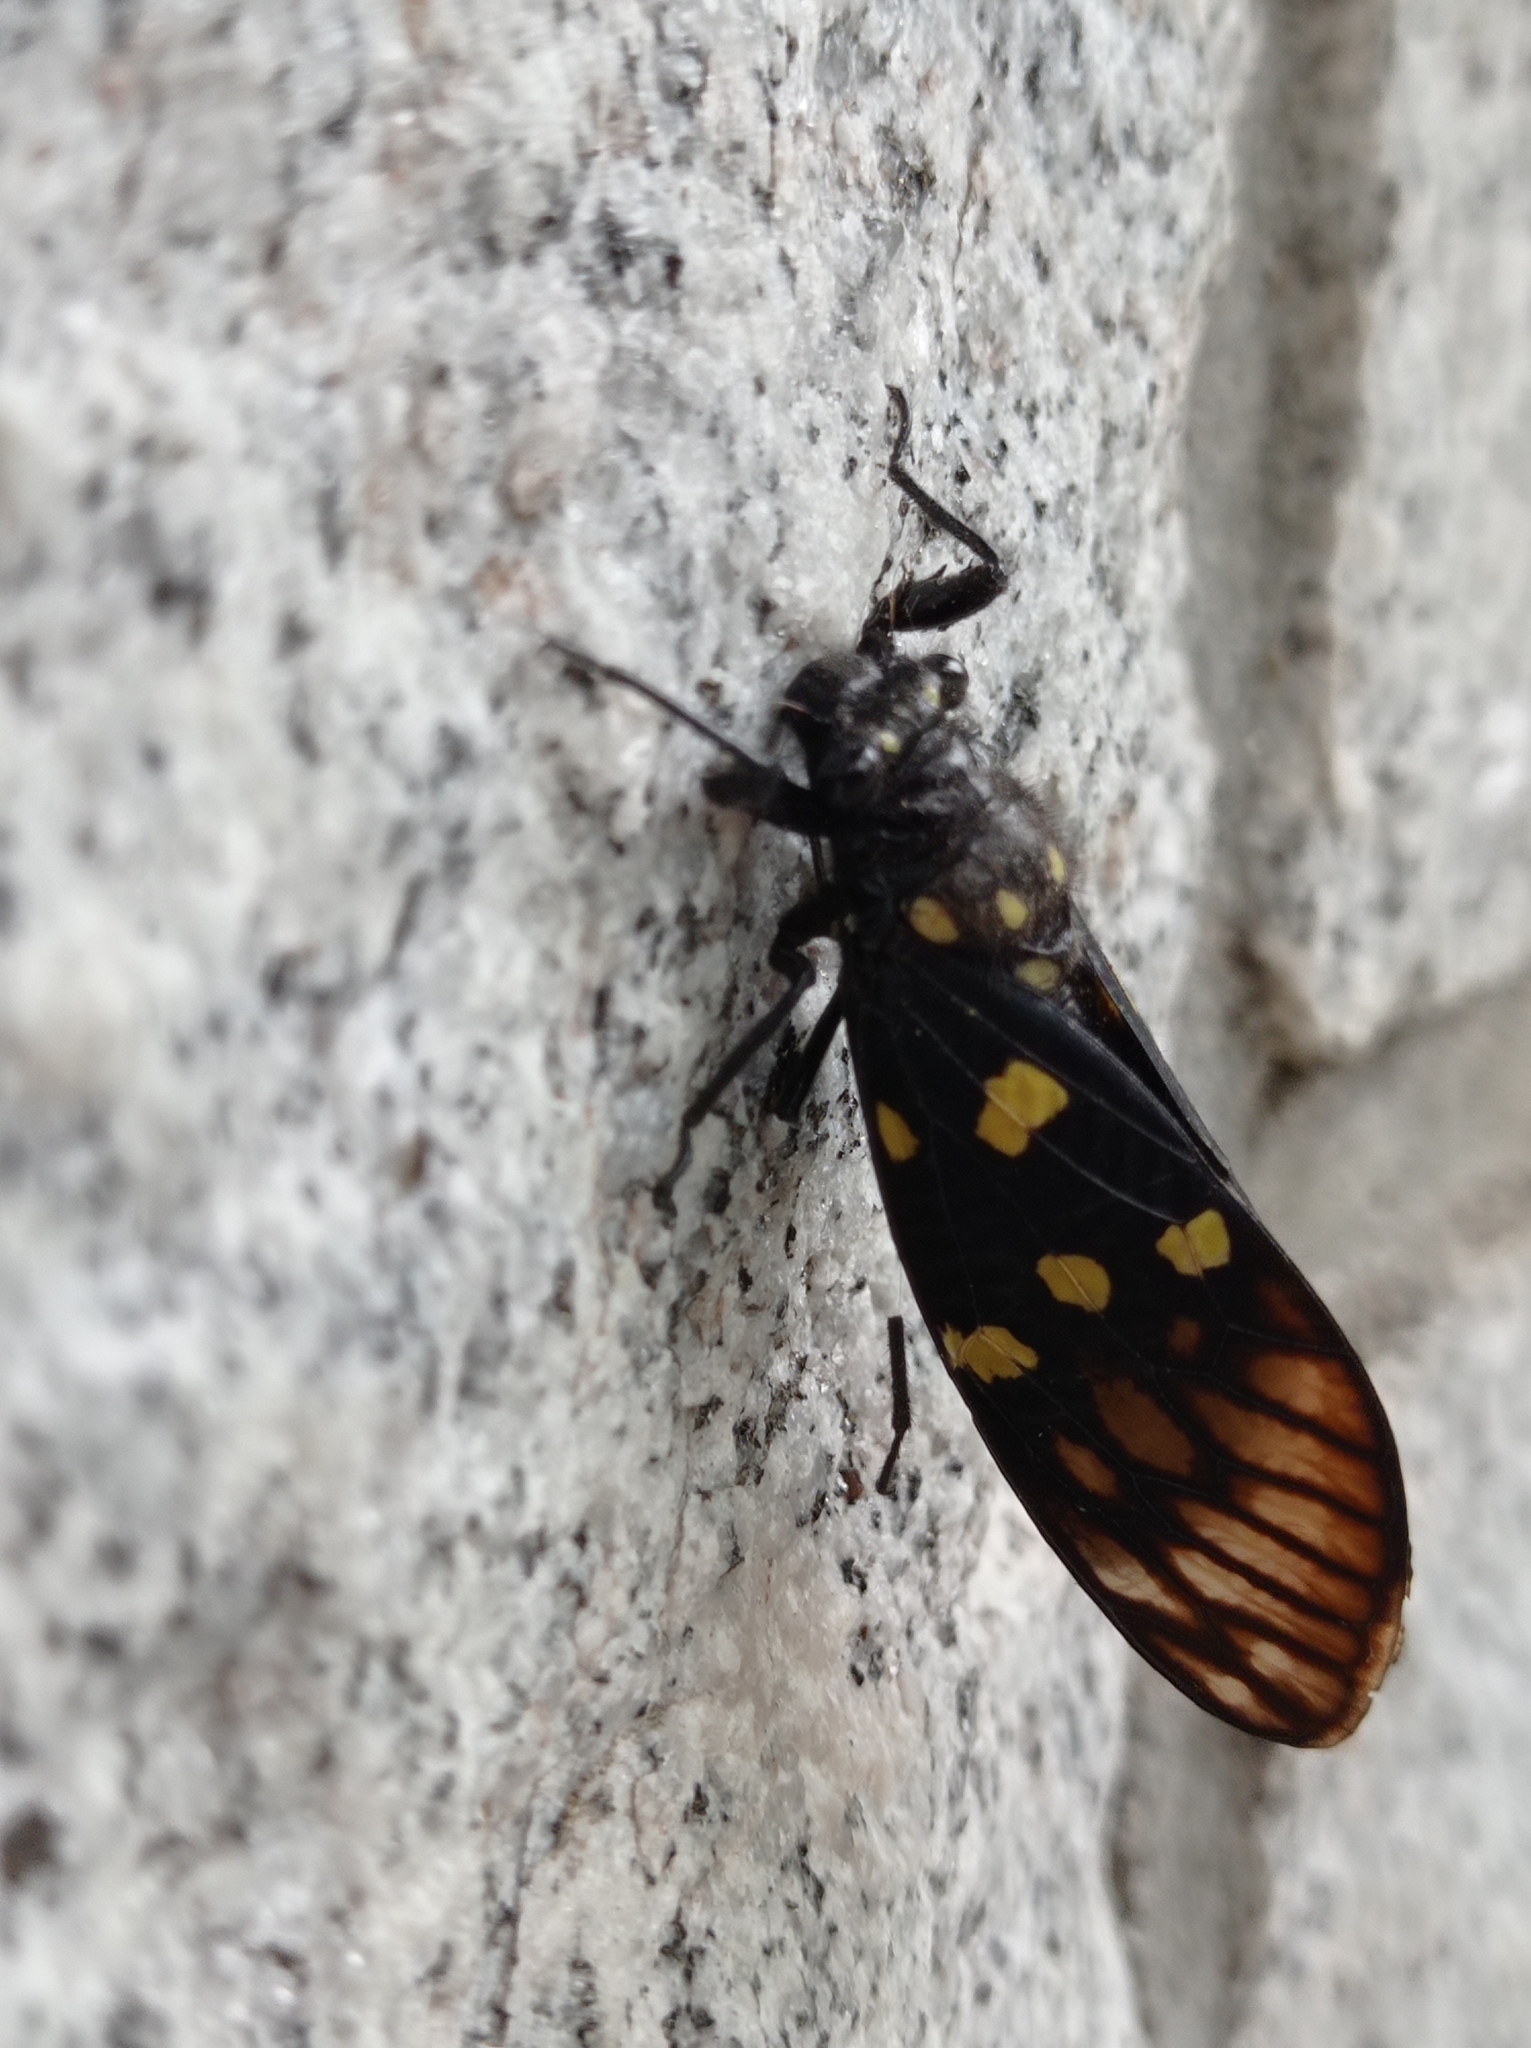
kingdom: Animalia
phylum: Arthropoda
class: Insecta
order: Hemiptera
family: Cicadidae
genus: Gaeana
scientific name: Gaeana maculata
